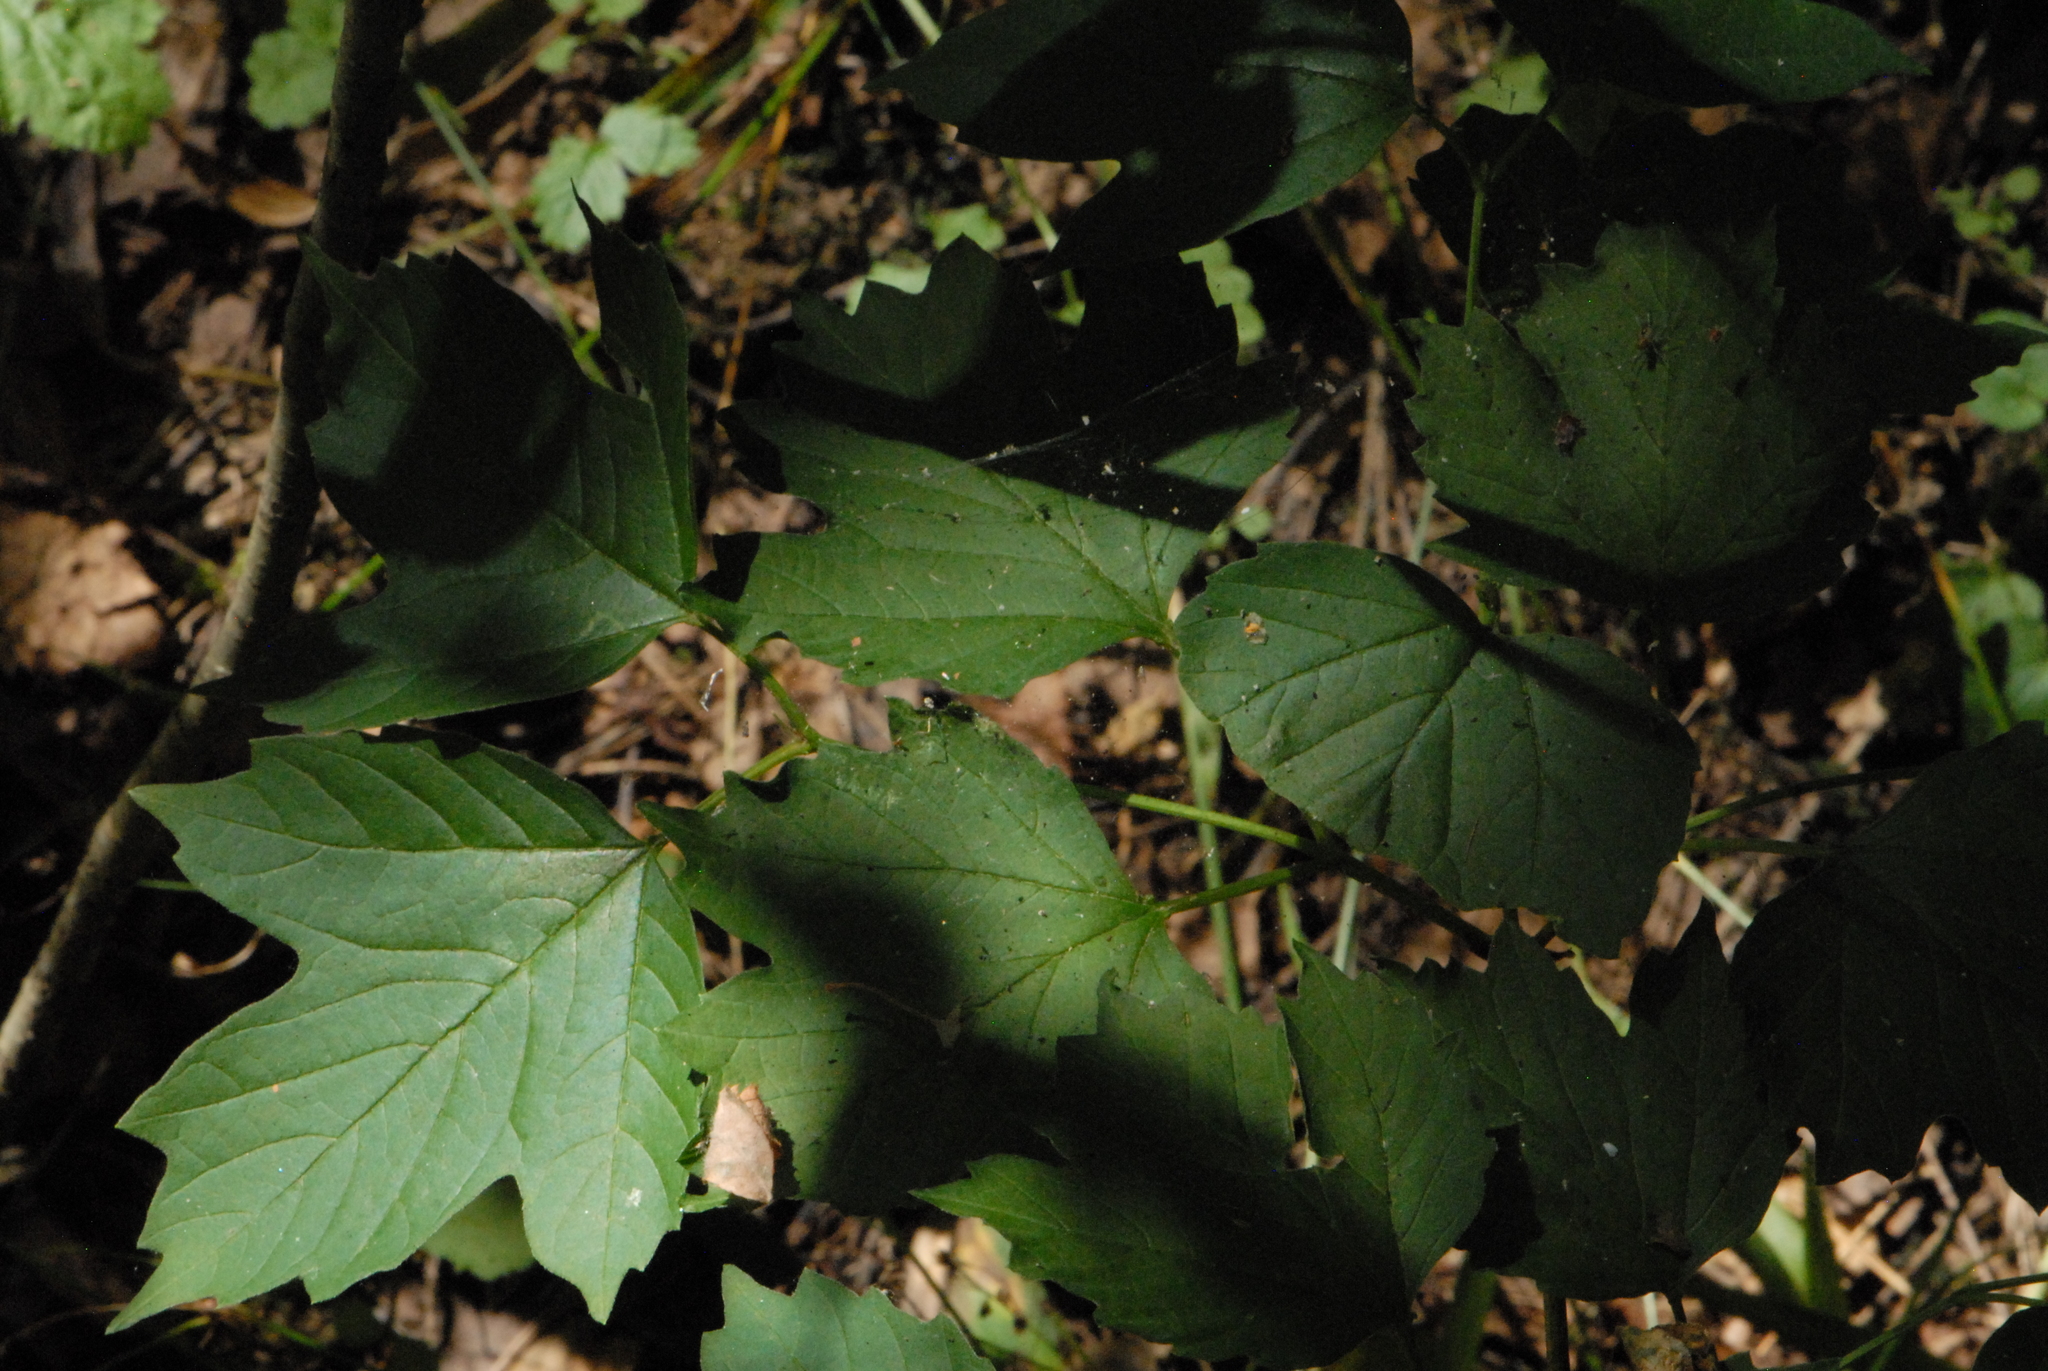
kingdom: Plantae
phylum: Tracheophyta
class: Magnoliopsida
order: Dipsacales
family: Viburnaceae
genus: Viburnum
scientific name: Viburnum opulus
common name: Guelder-rose
